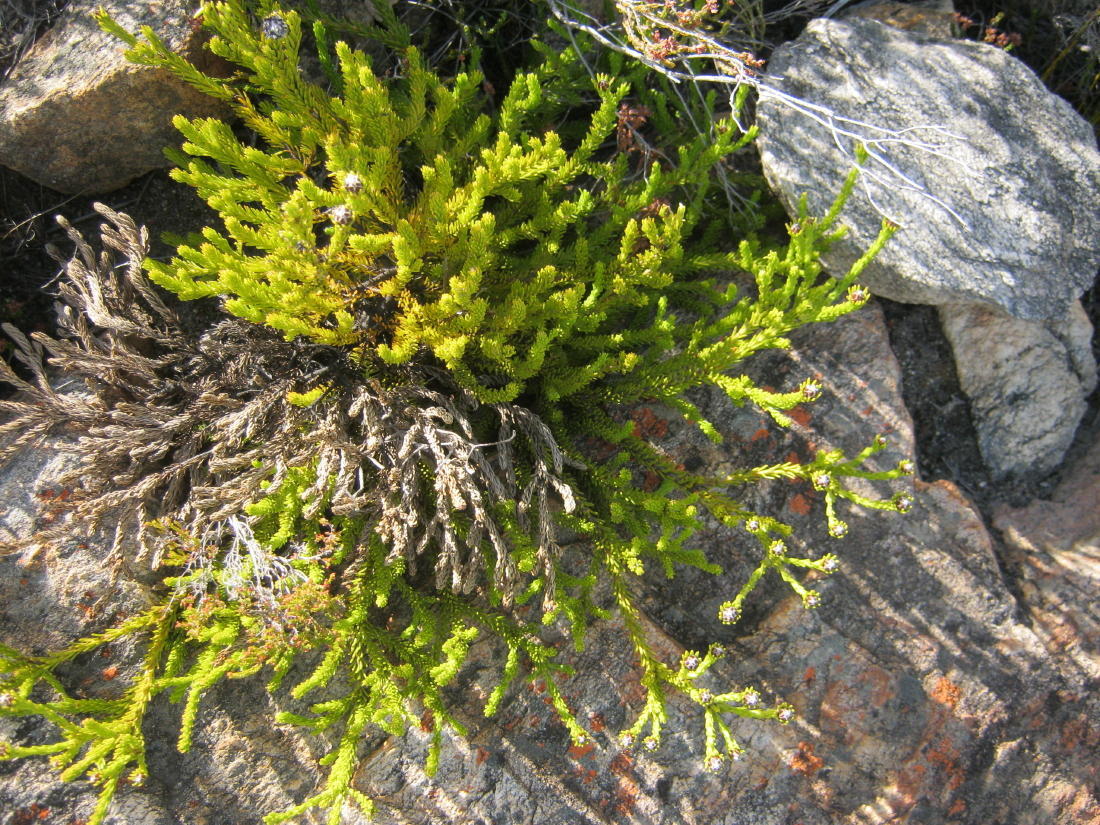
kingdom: Plantae
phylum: Tracheophyta
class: Magnoliopsida
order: Proteales
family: Proteaceae
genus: Leucadendron
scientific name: Leucadendron sorocephalodes
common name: Woolly conebush
